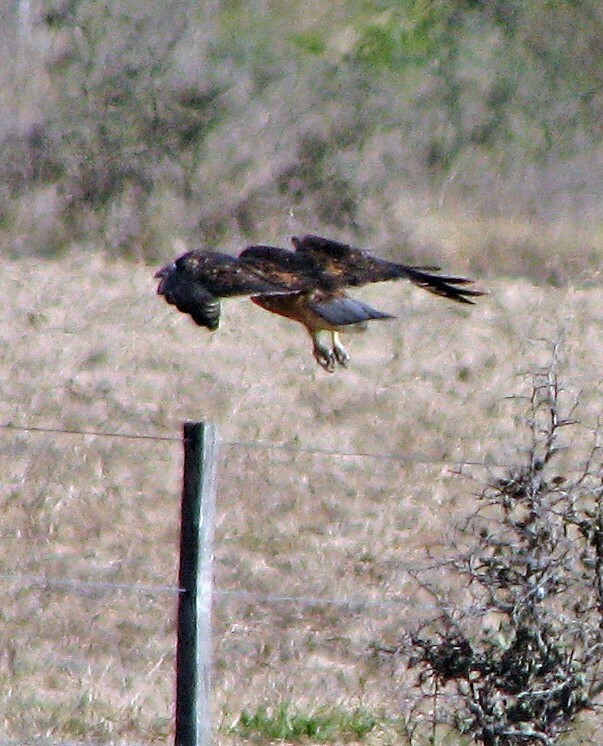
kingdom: Animalia
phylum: Chordata
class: Aves
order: Accipitriformes
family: Accipitridae
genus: Buteo
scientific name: Buteo polyosoma
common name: Variable hawk
